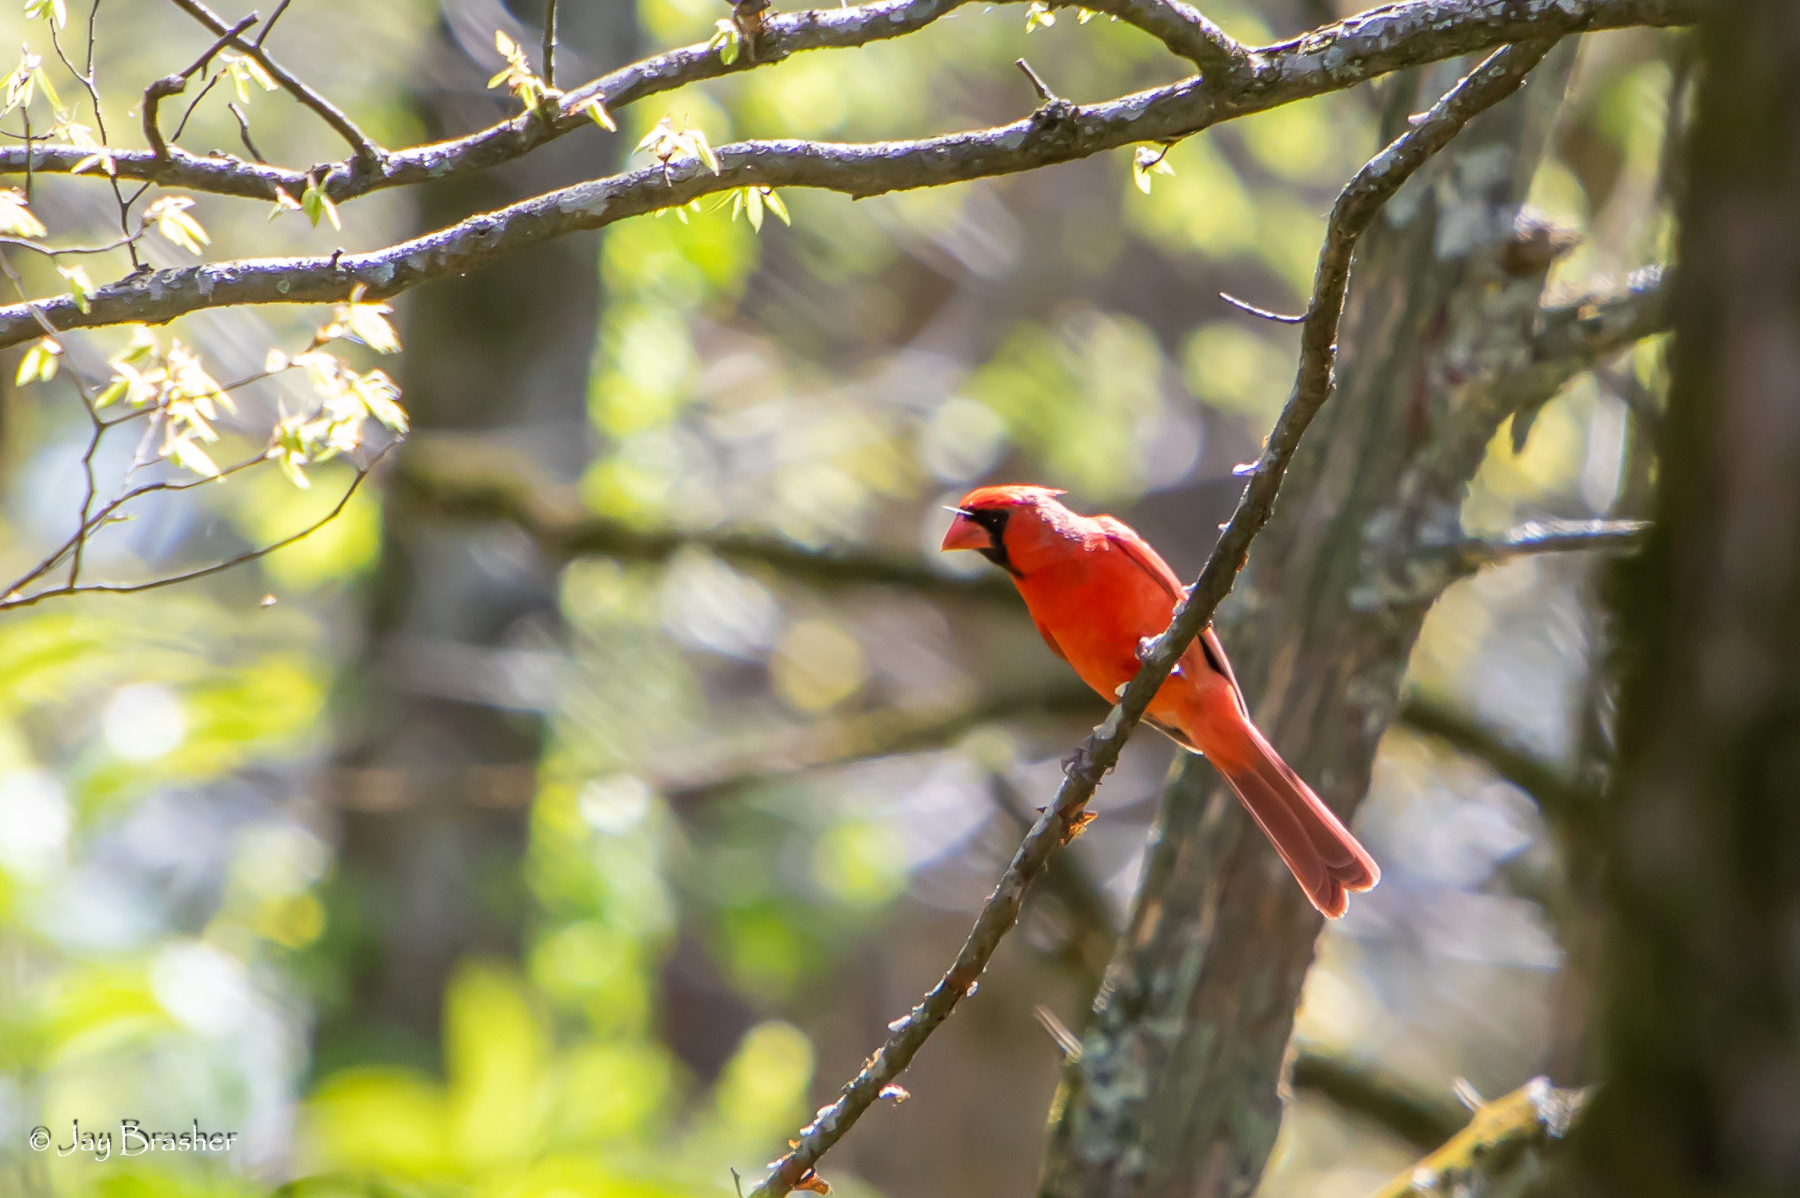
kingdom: Animalia
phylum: Chordata
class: Aves
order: Passeriformes
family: Cardinalidae
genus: Cardinalis
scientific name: Cardinalis cardinalis
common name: Northern cardinal
